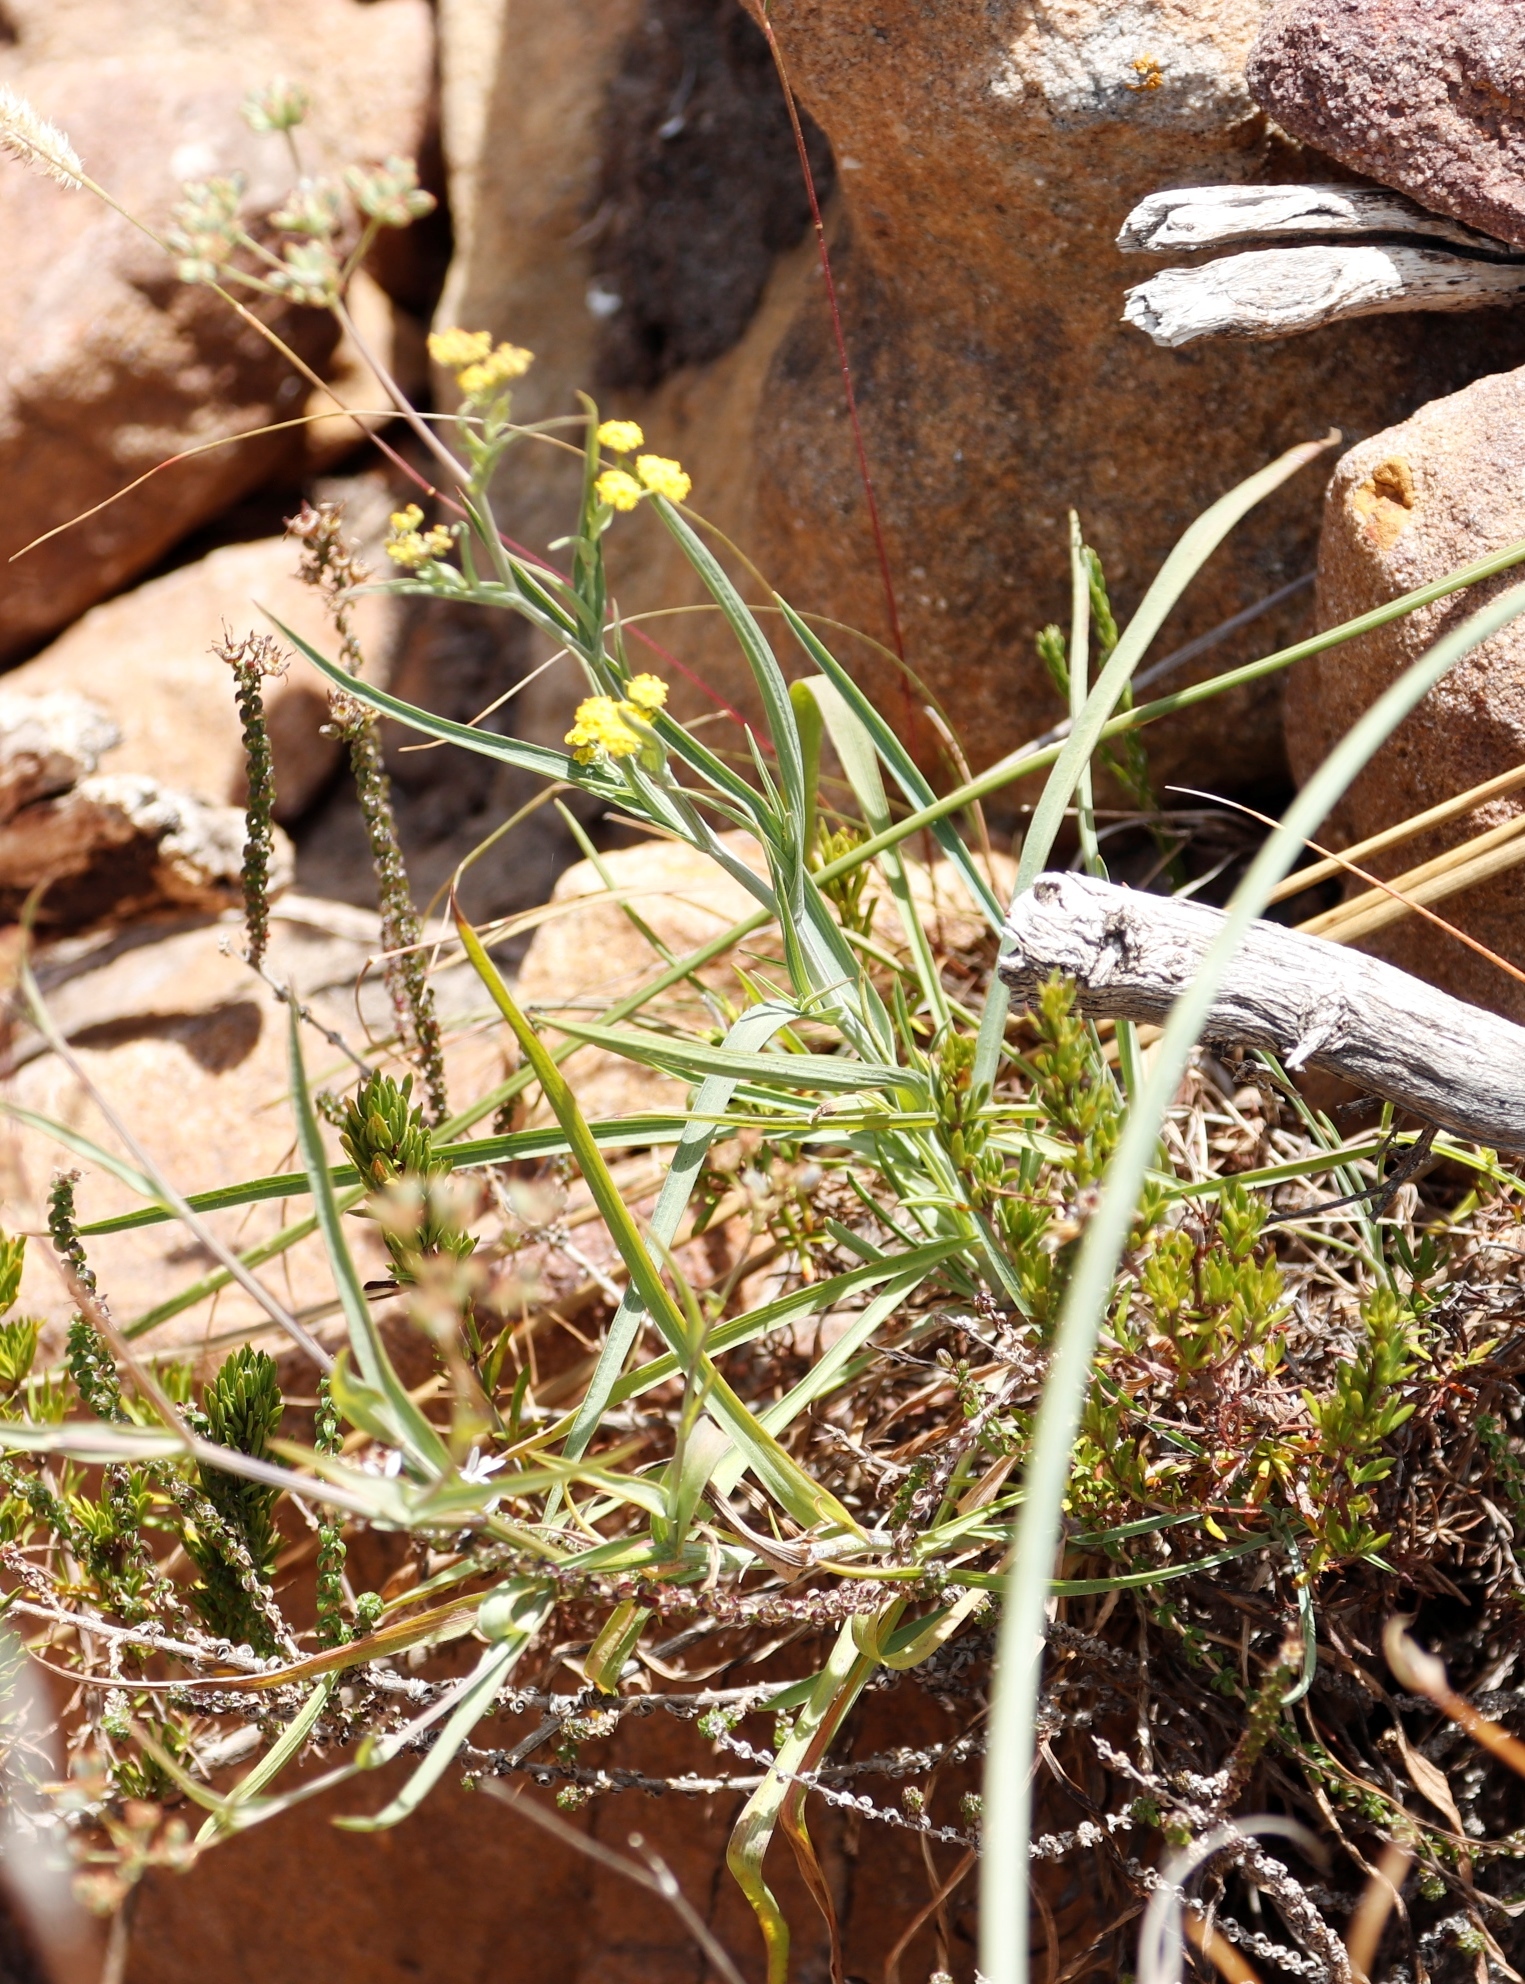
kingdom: Plantae
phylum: Tracheophyta
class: Magnoliopsida
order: Apiales
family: Apiaceae
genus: Bupleurum
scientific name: Bupleurum mundii
